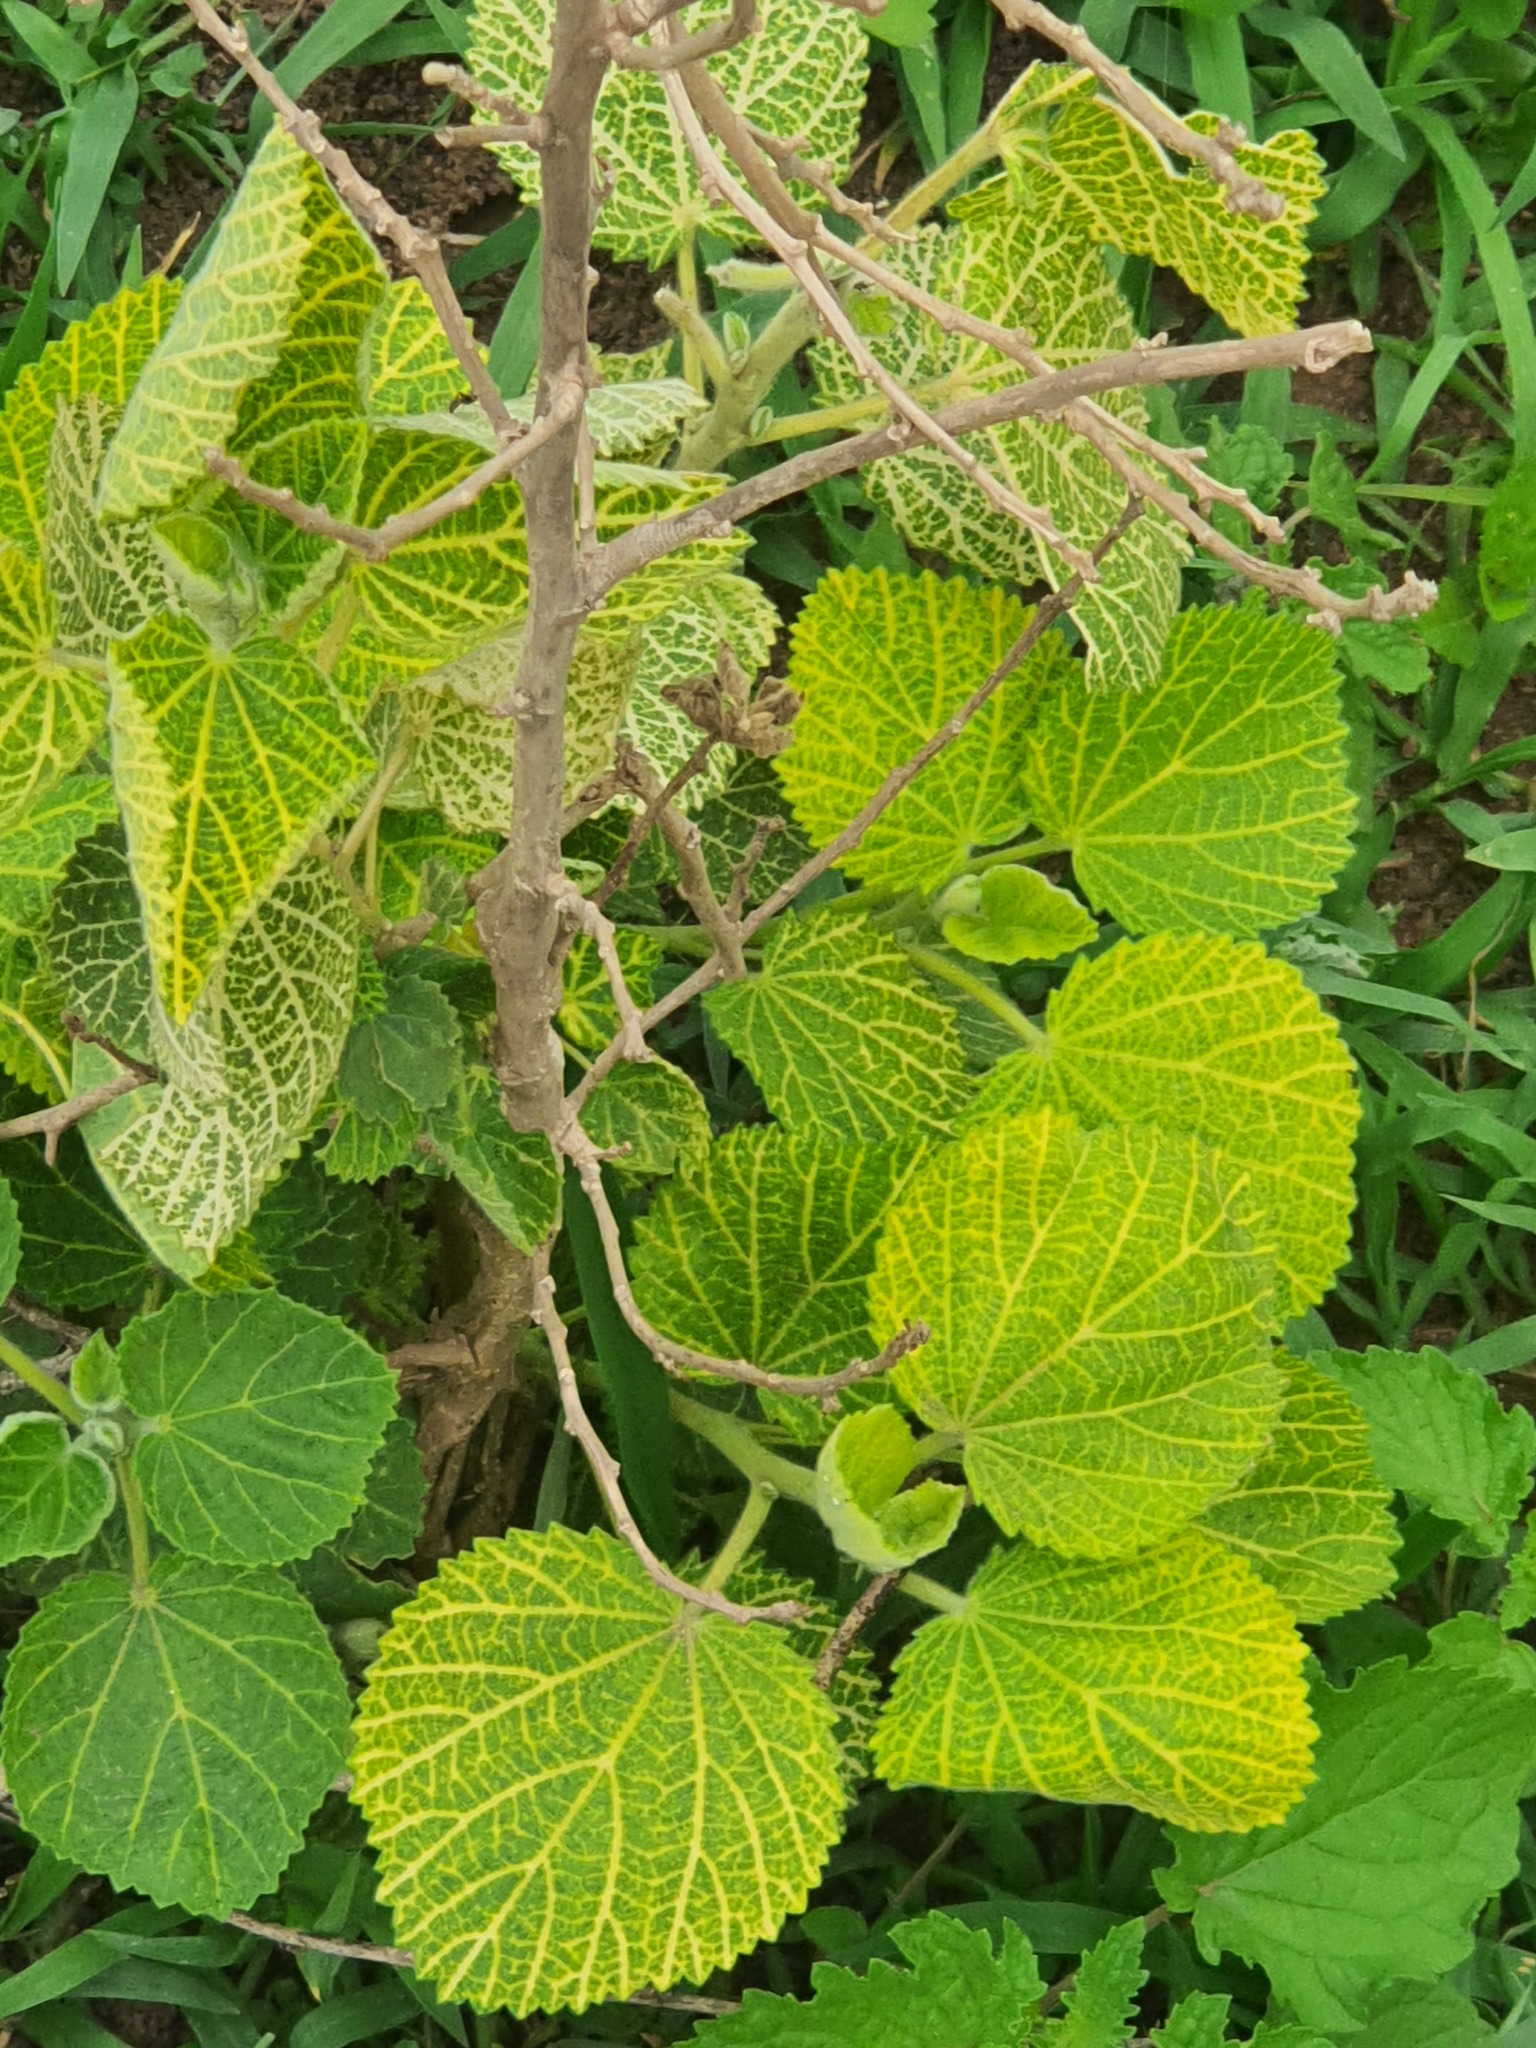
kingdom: Plantae
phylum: Tracheophyta
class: Magnoliopsida
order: Lamiales
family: Lamiaceae
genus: Tetradenia
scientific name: Tetradenia riparia
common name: Gingerbush
